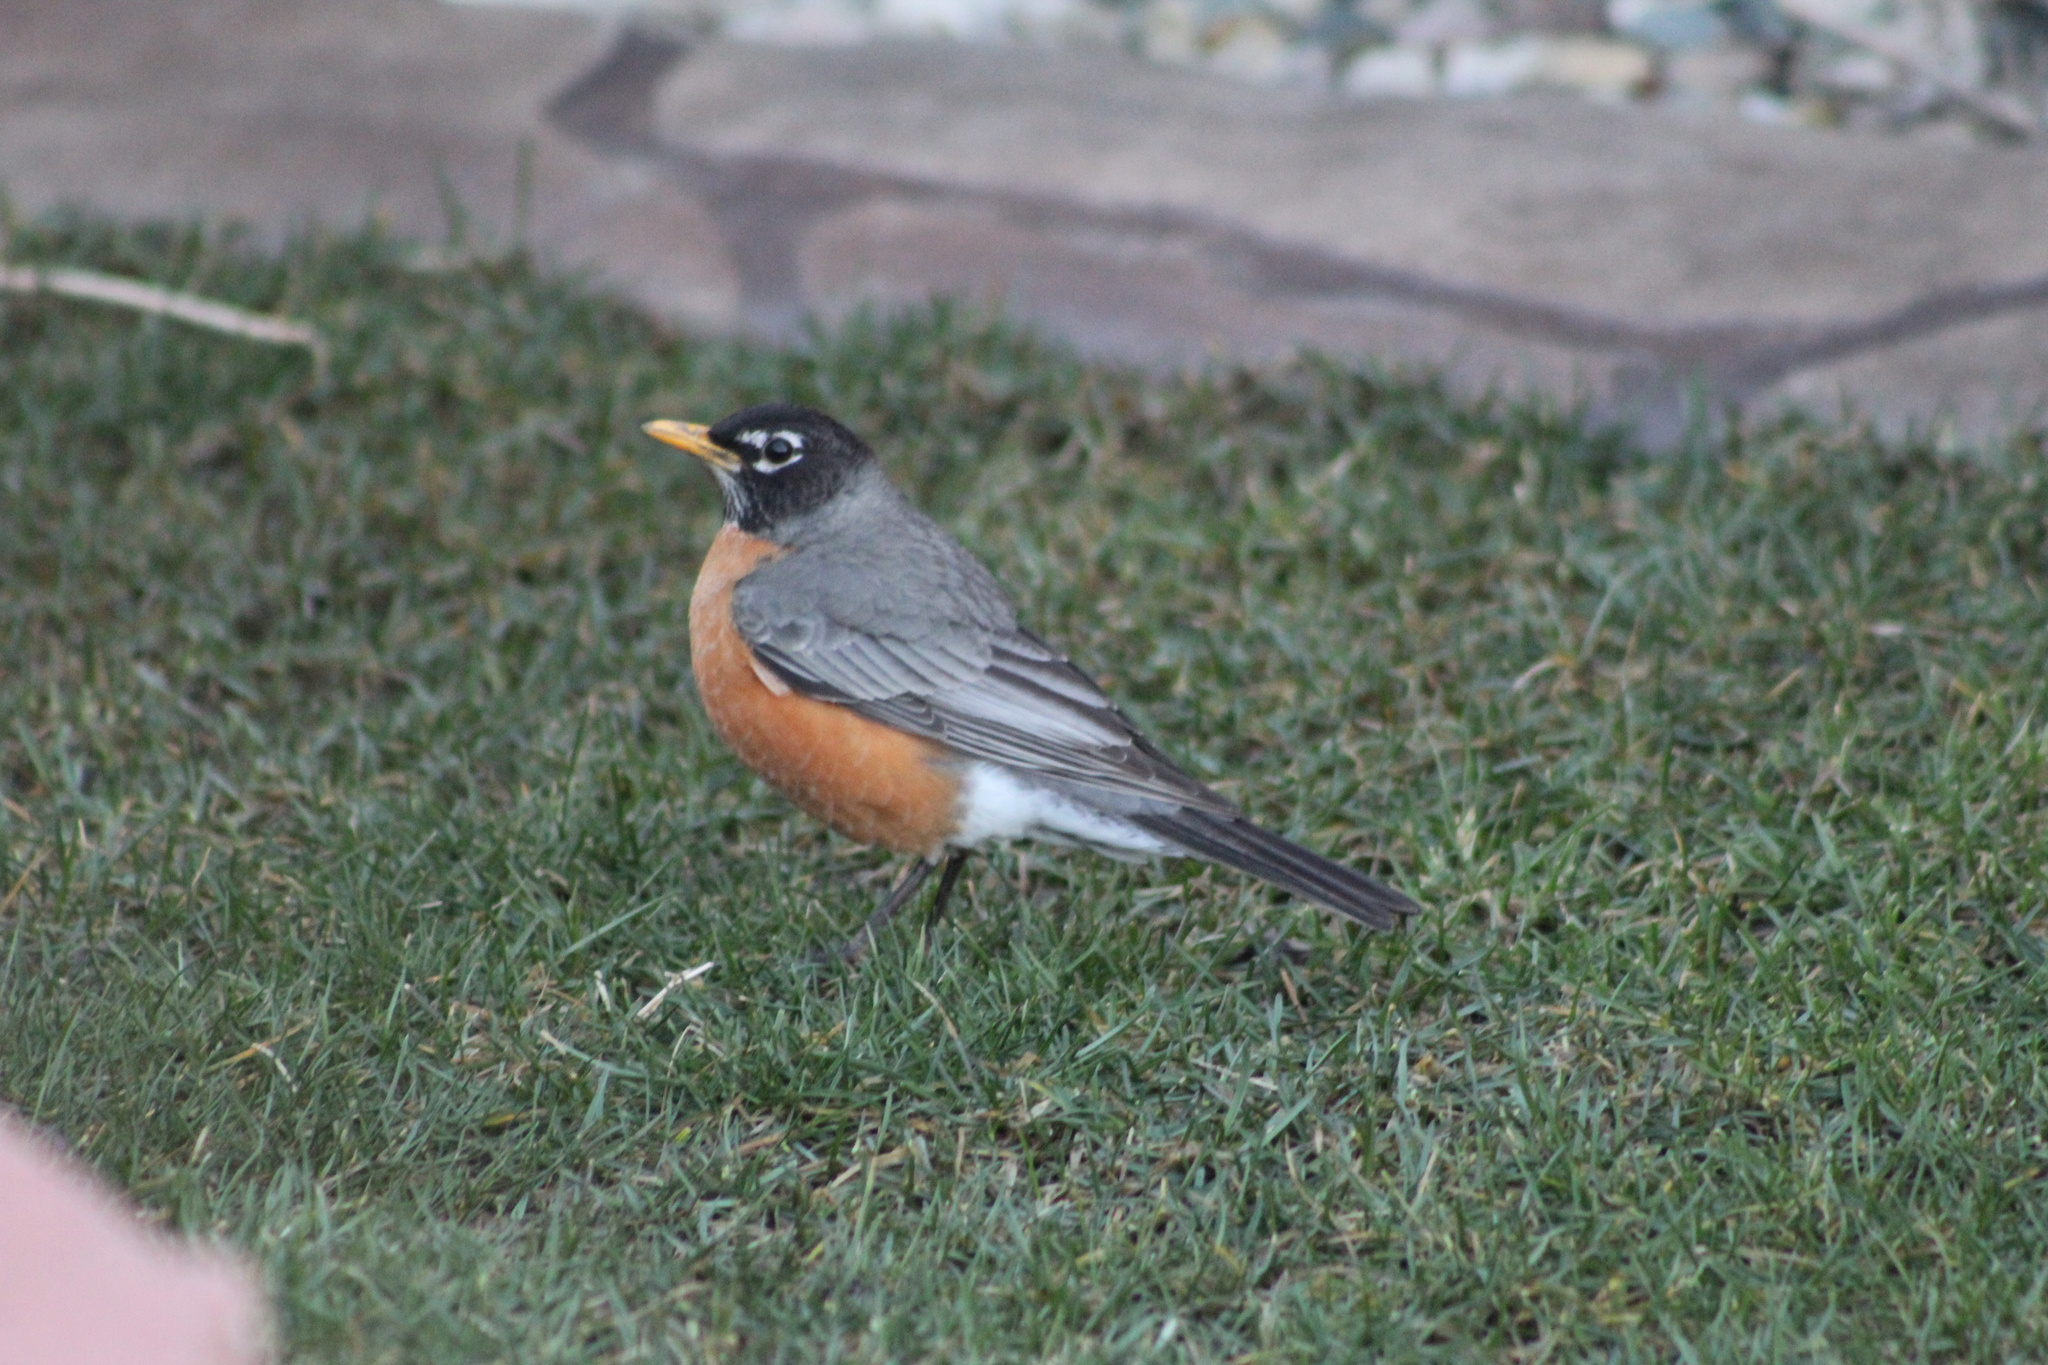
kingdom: Animalia
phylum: Chordata
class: Aves
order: Passeriformes
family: Turdidae
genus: Turdus
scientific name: Turdus migratorius
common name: American robin
